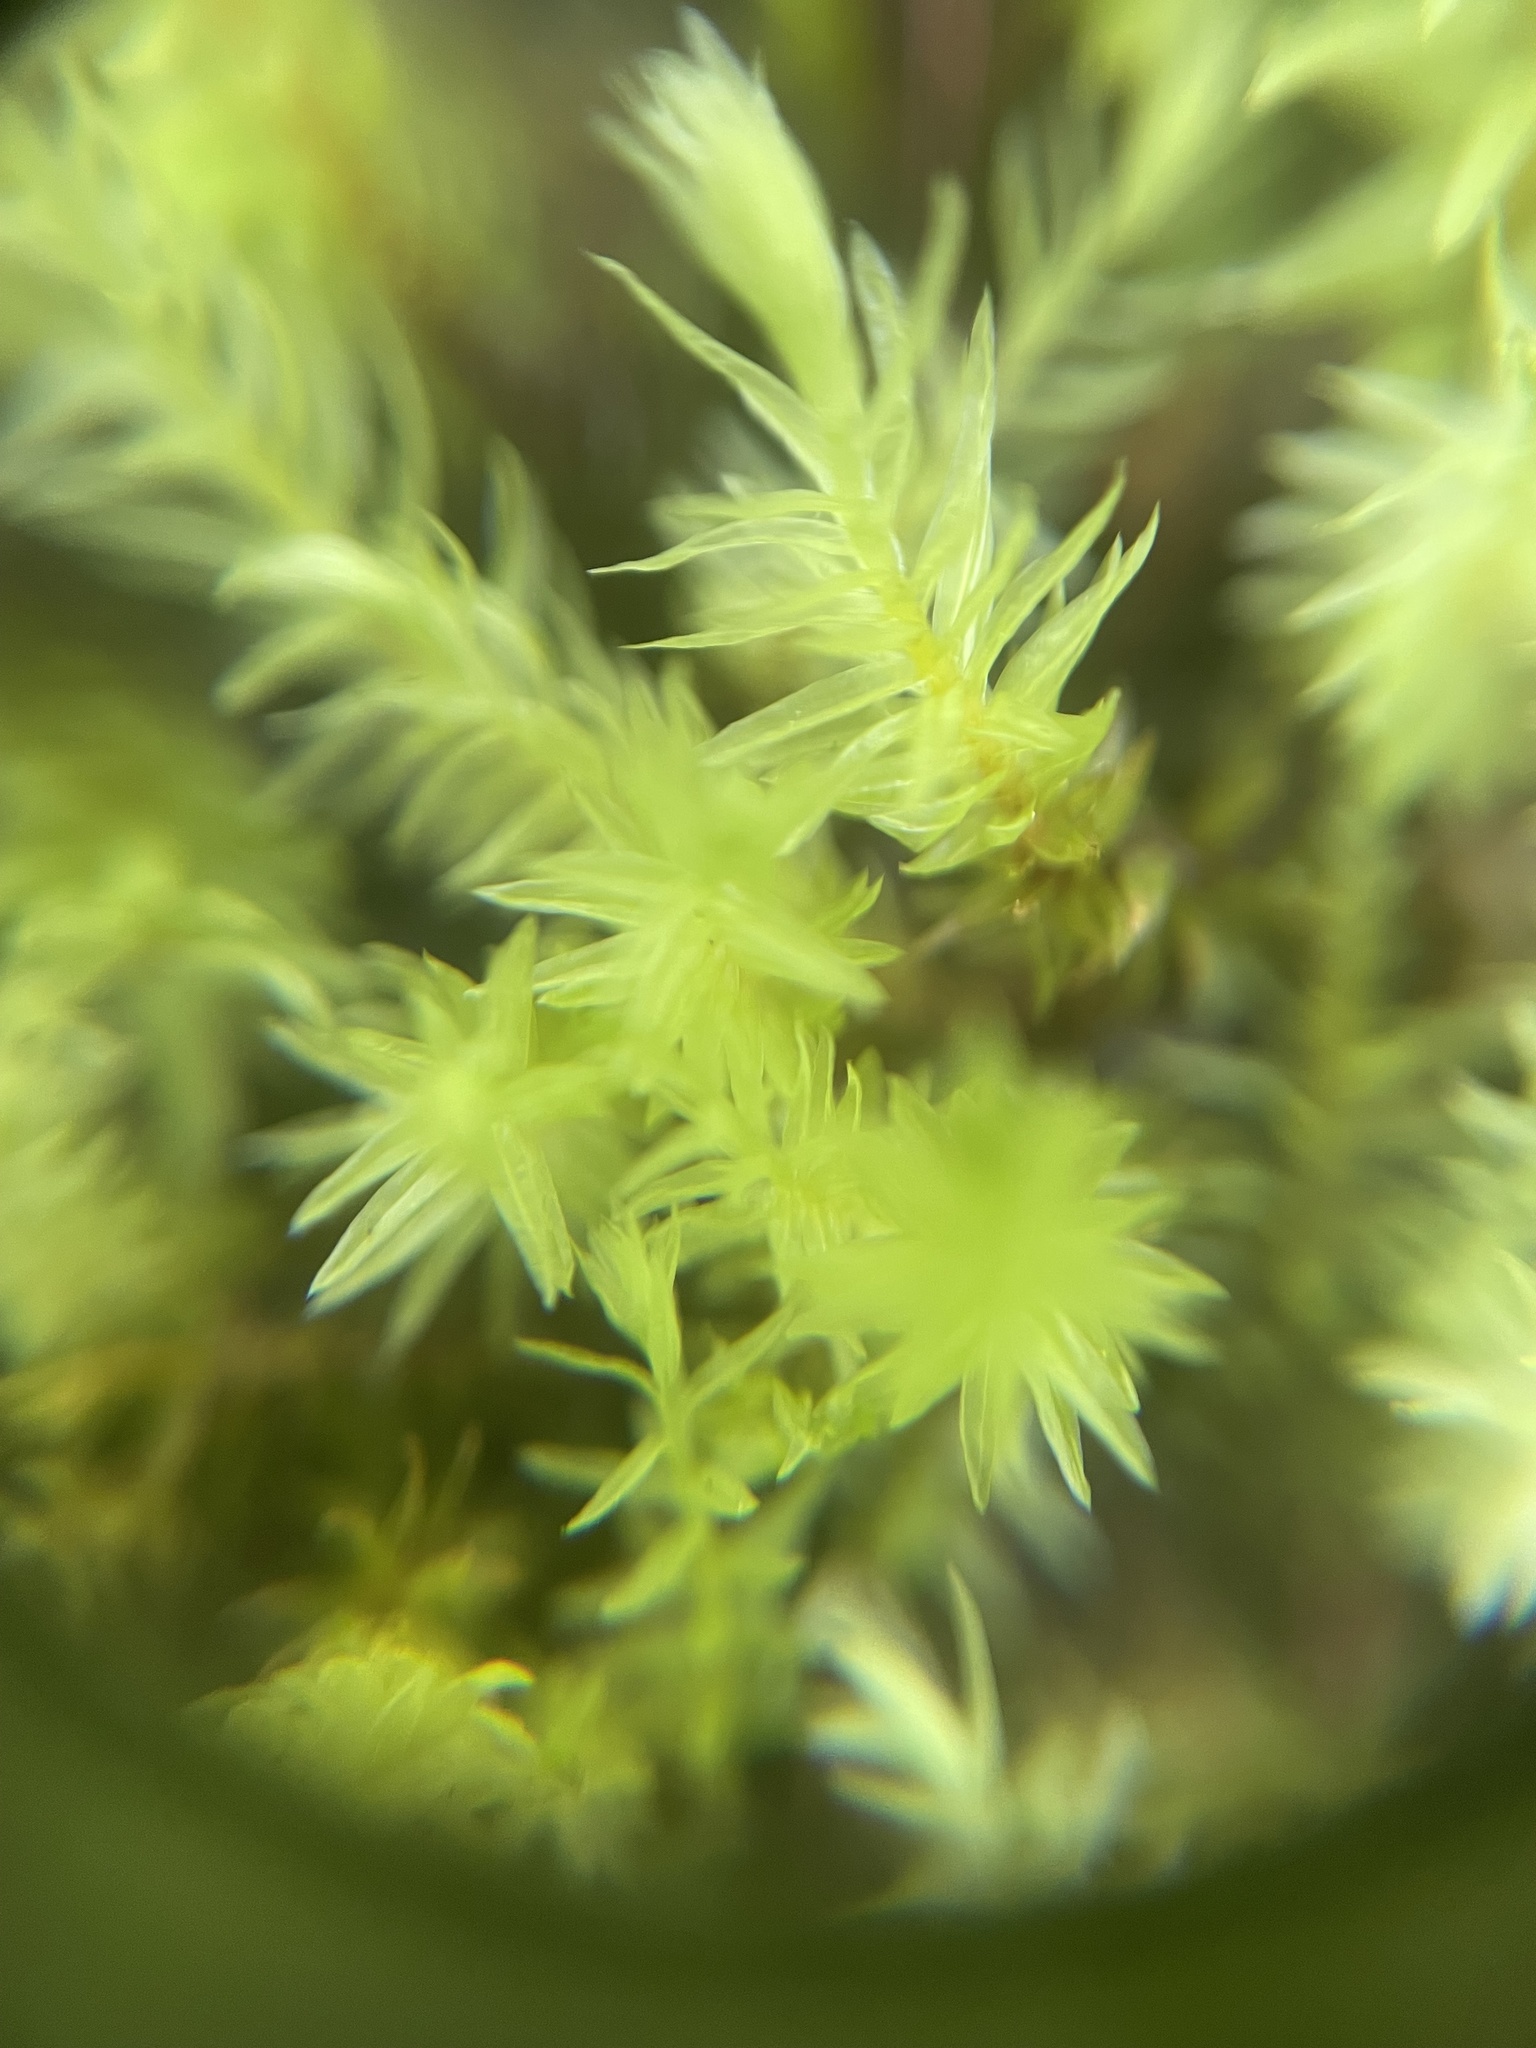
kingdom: Plantae
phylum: Bryophyta
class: Bryopsida
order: Aulacomniales
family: Aulacomniaceae
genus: Aulacomnium
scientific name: Aulacomnium palustre
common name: Bog groove-moss
